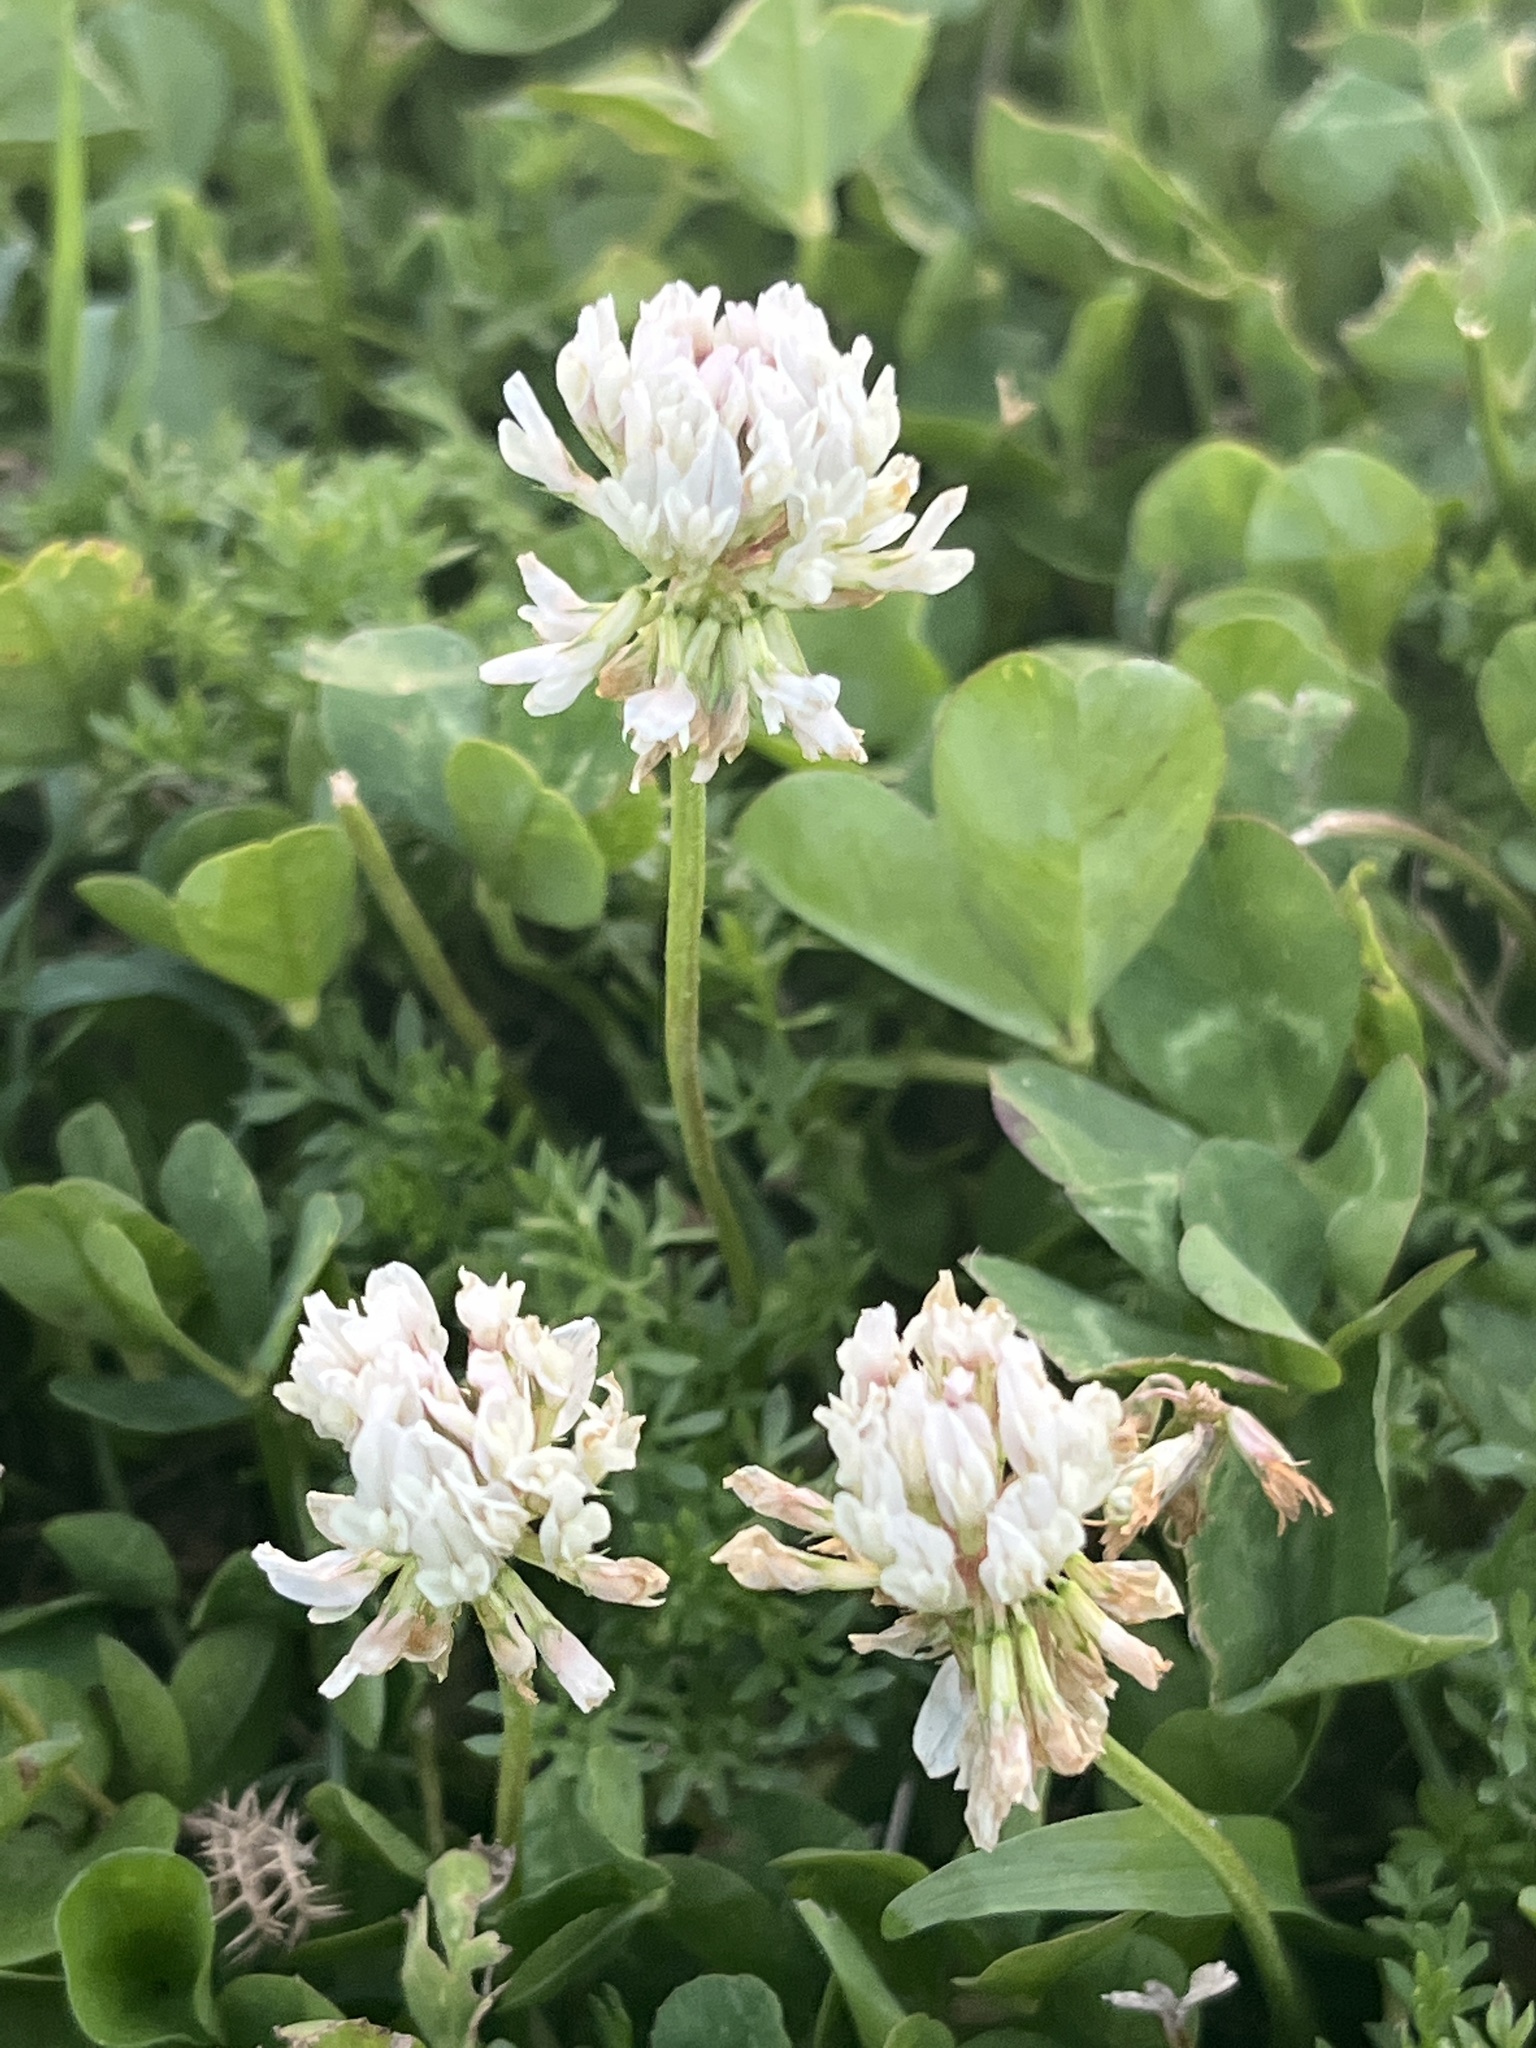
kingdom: Plantae
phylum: Tracheophyta
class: Magnoliopsida
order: Fabales
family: Fabaceae
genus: Trifolium
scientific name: Trifolium repens
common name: White clover
